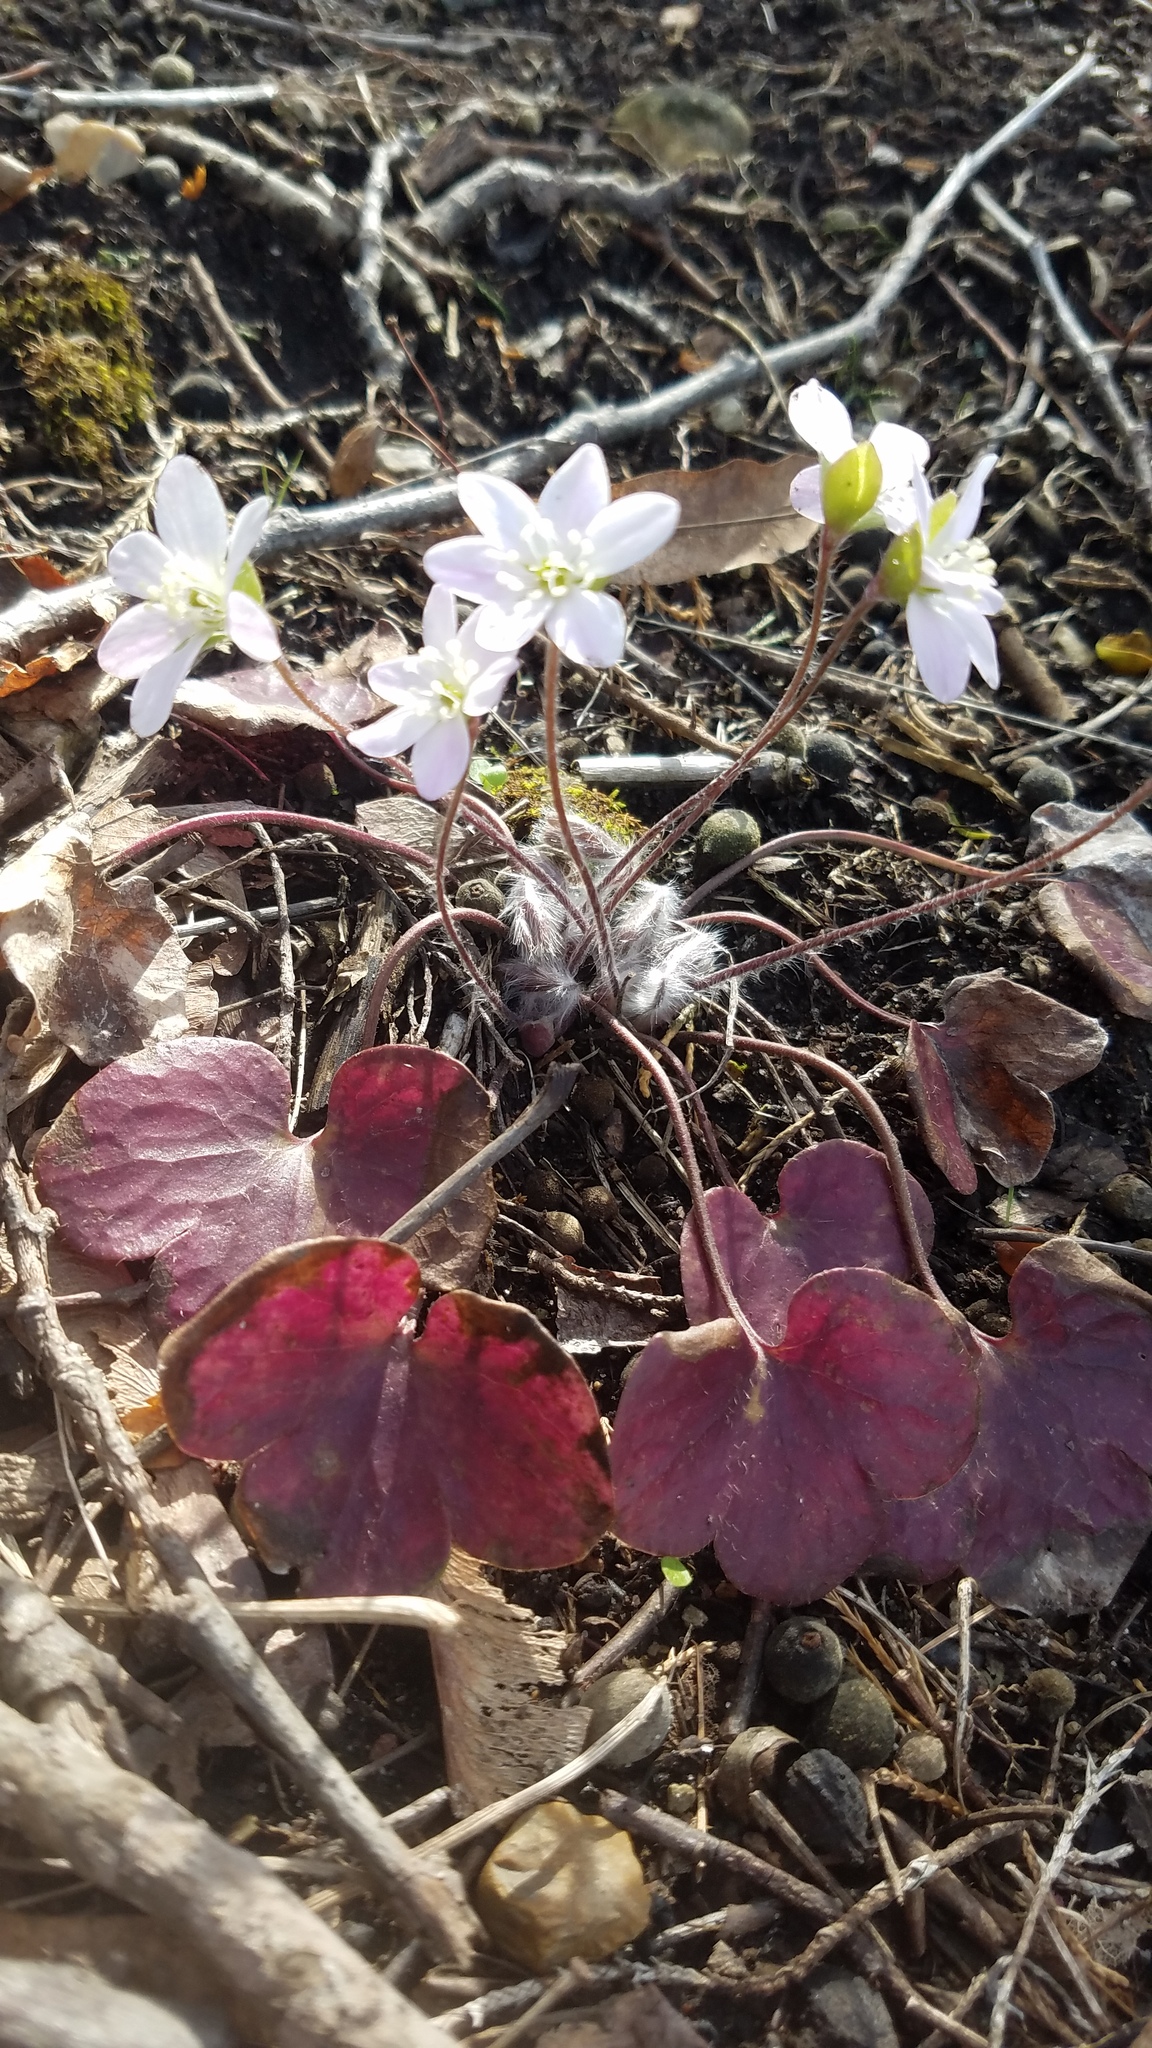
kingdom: Plantae
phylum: Tracheophyta
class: Magnoliopsida
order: Ranunculales
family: Ranunculaceae
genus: Hepatica
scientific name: Hepatica americana
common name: American hepatica
